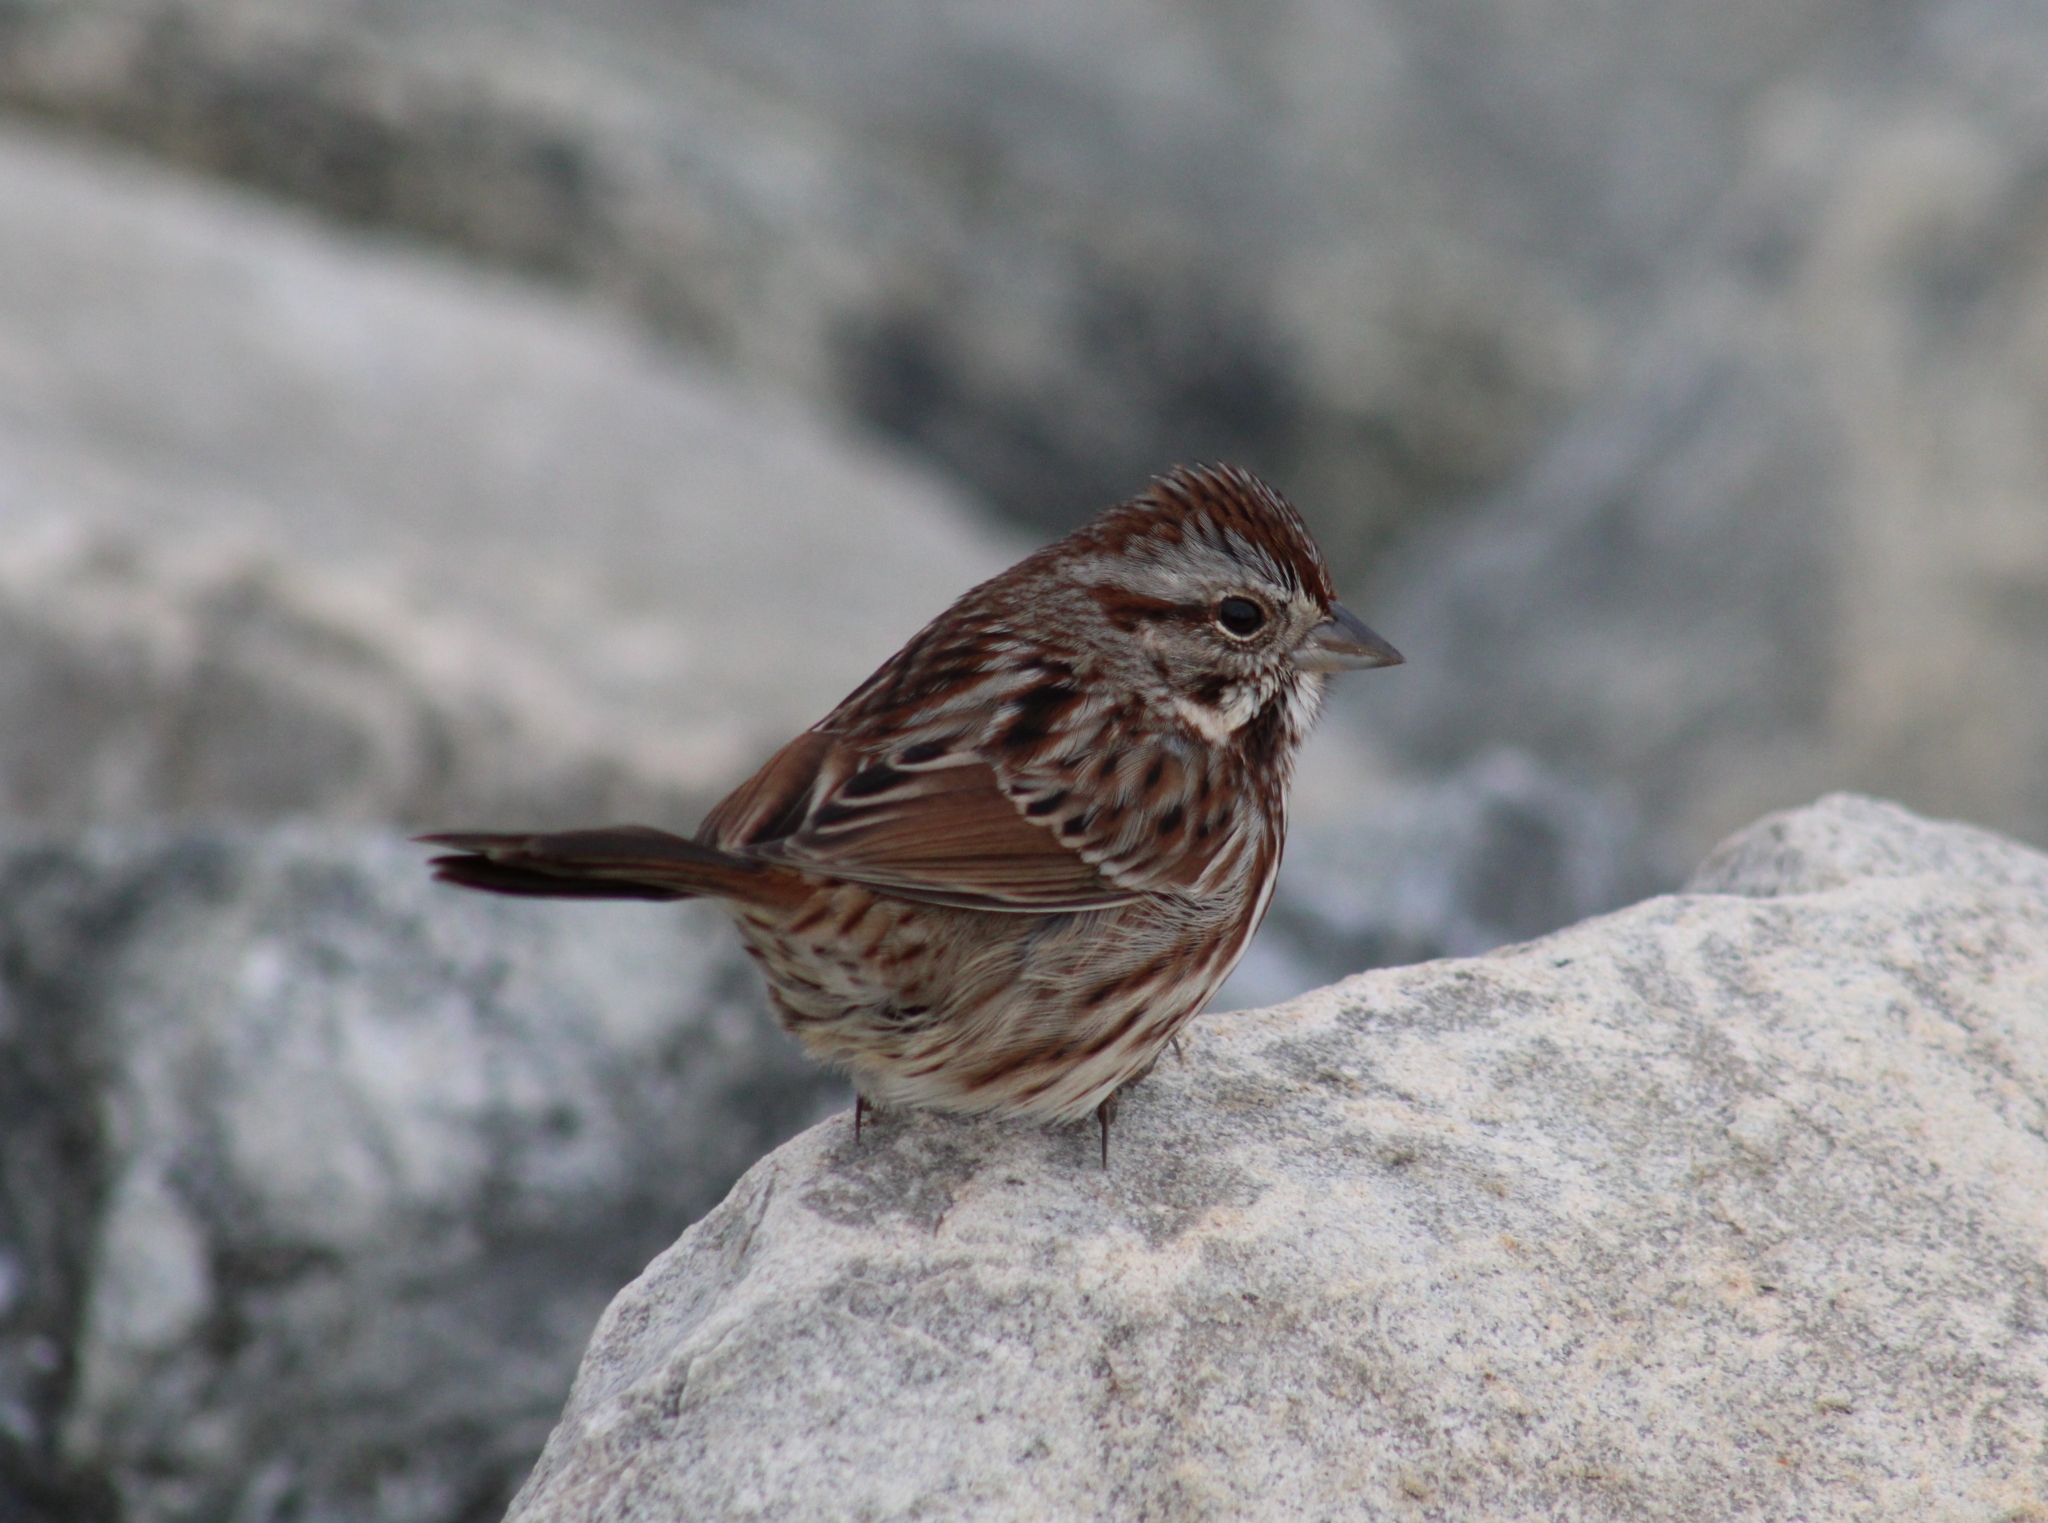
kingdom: Animalia
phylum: Chordata
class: Aves
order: Passeriformes
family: Passerellidae
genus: Melospiza
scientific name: Melospiza melodia
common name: Song sparrow
